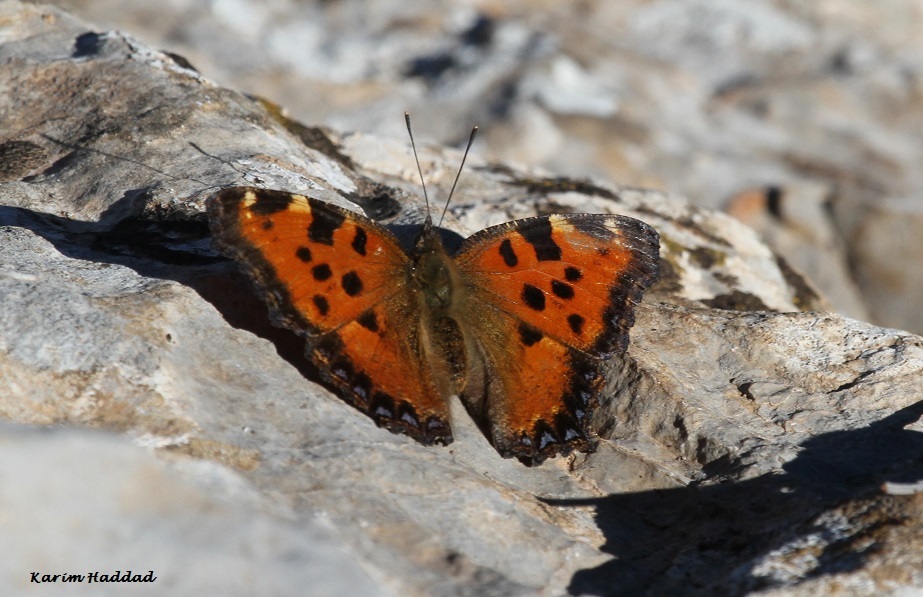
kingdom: Animalia
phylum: Arthropoda
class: Insecta
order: Lepidoptera
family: Nymphalidae
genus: Nymphalis
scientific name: Nymphalis polychloros
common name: Large tortoiseshell
